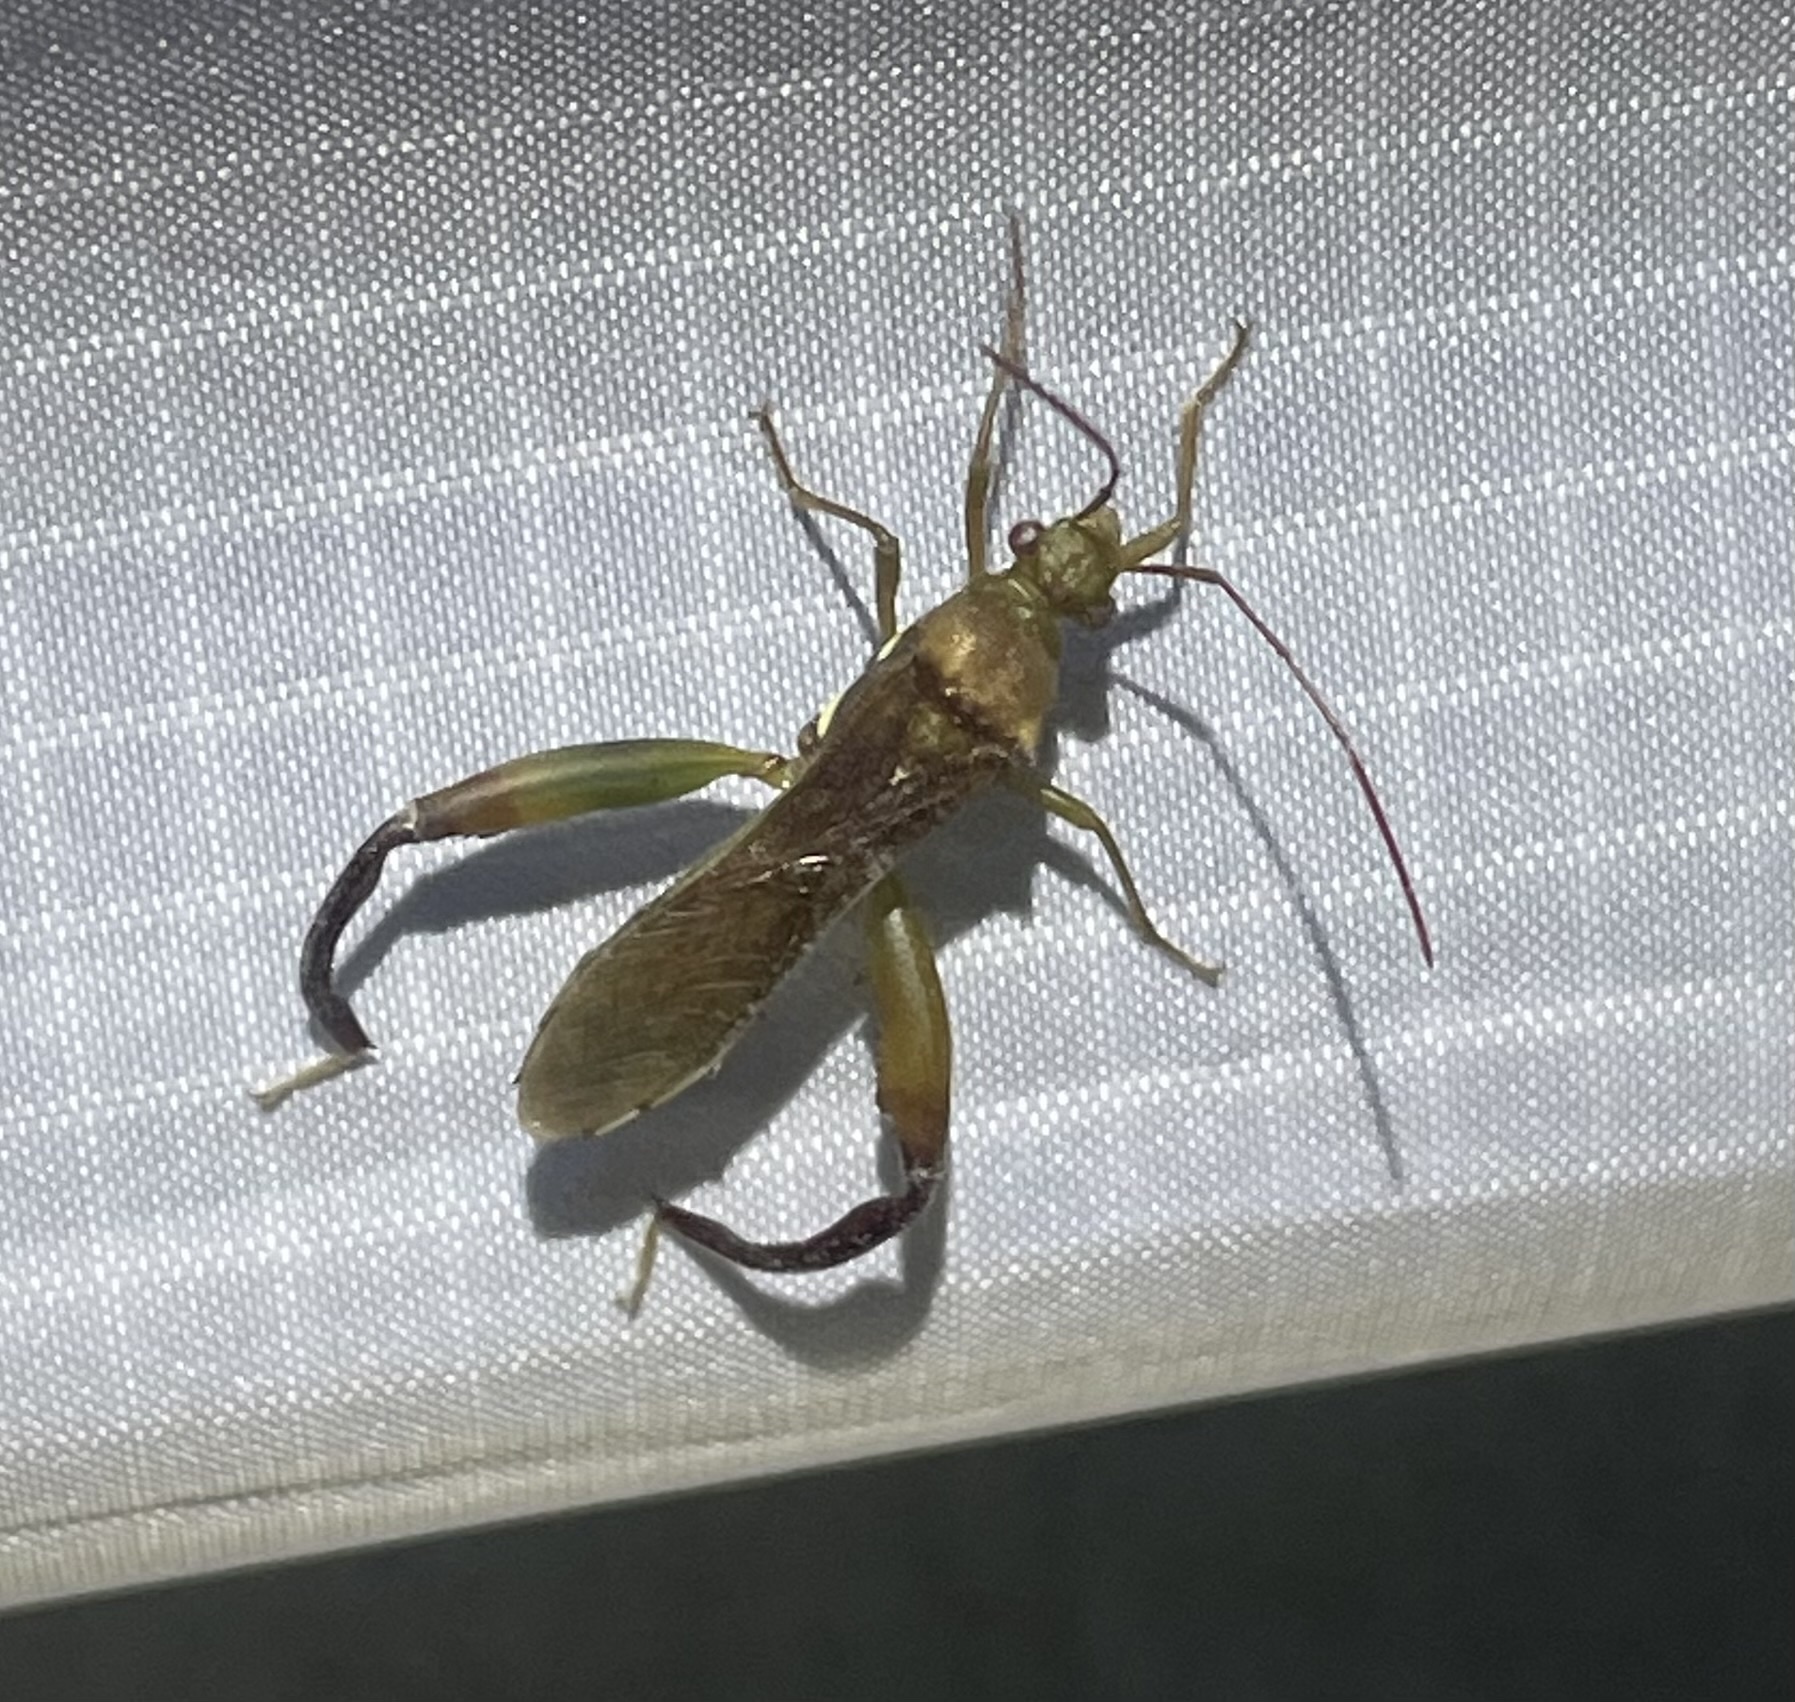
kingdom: Animalia
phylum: Arthropoda
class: Insecta
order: Hemiptera
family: Alydidae
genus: Hyalymenus
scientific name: Hyalymenus tarsatus
